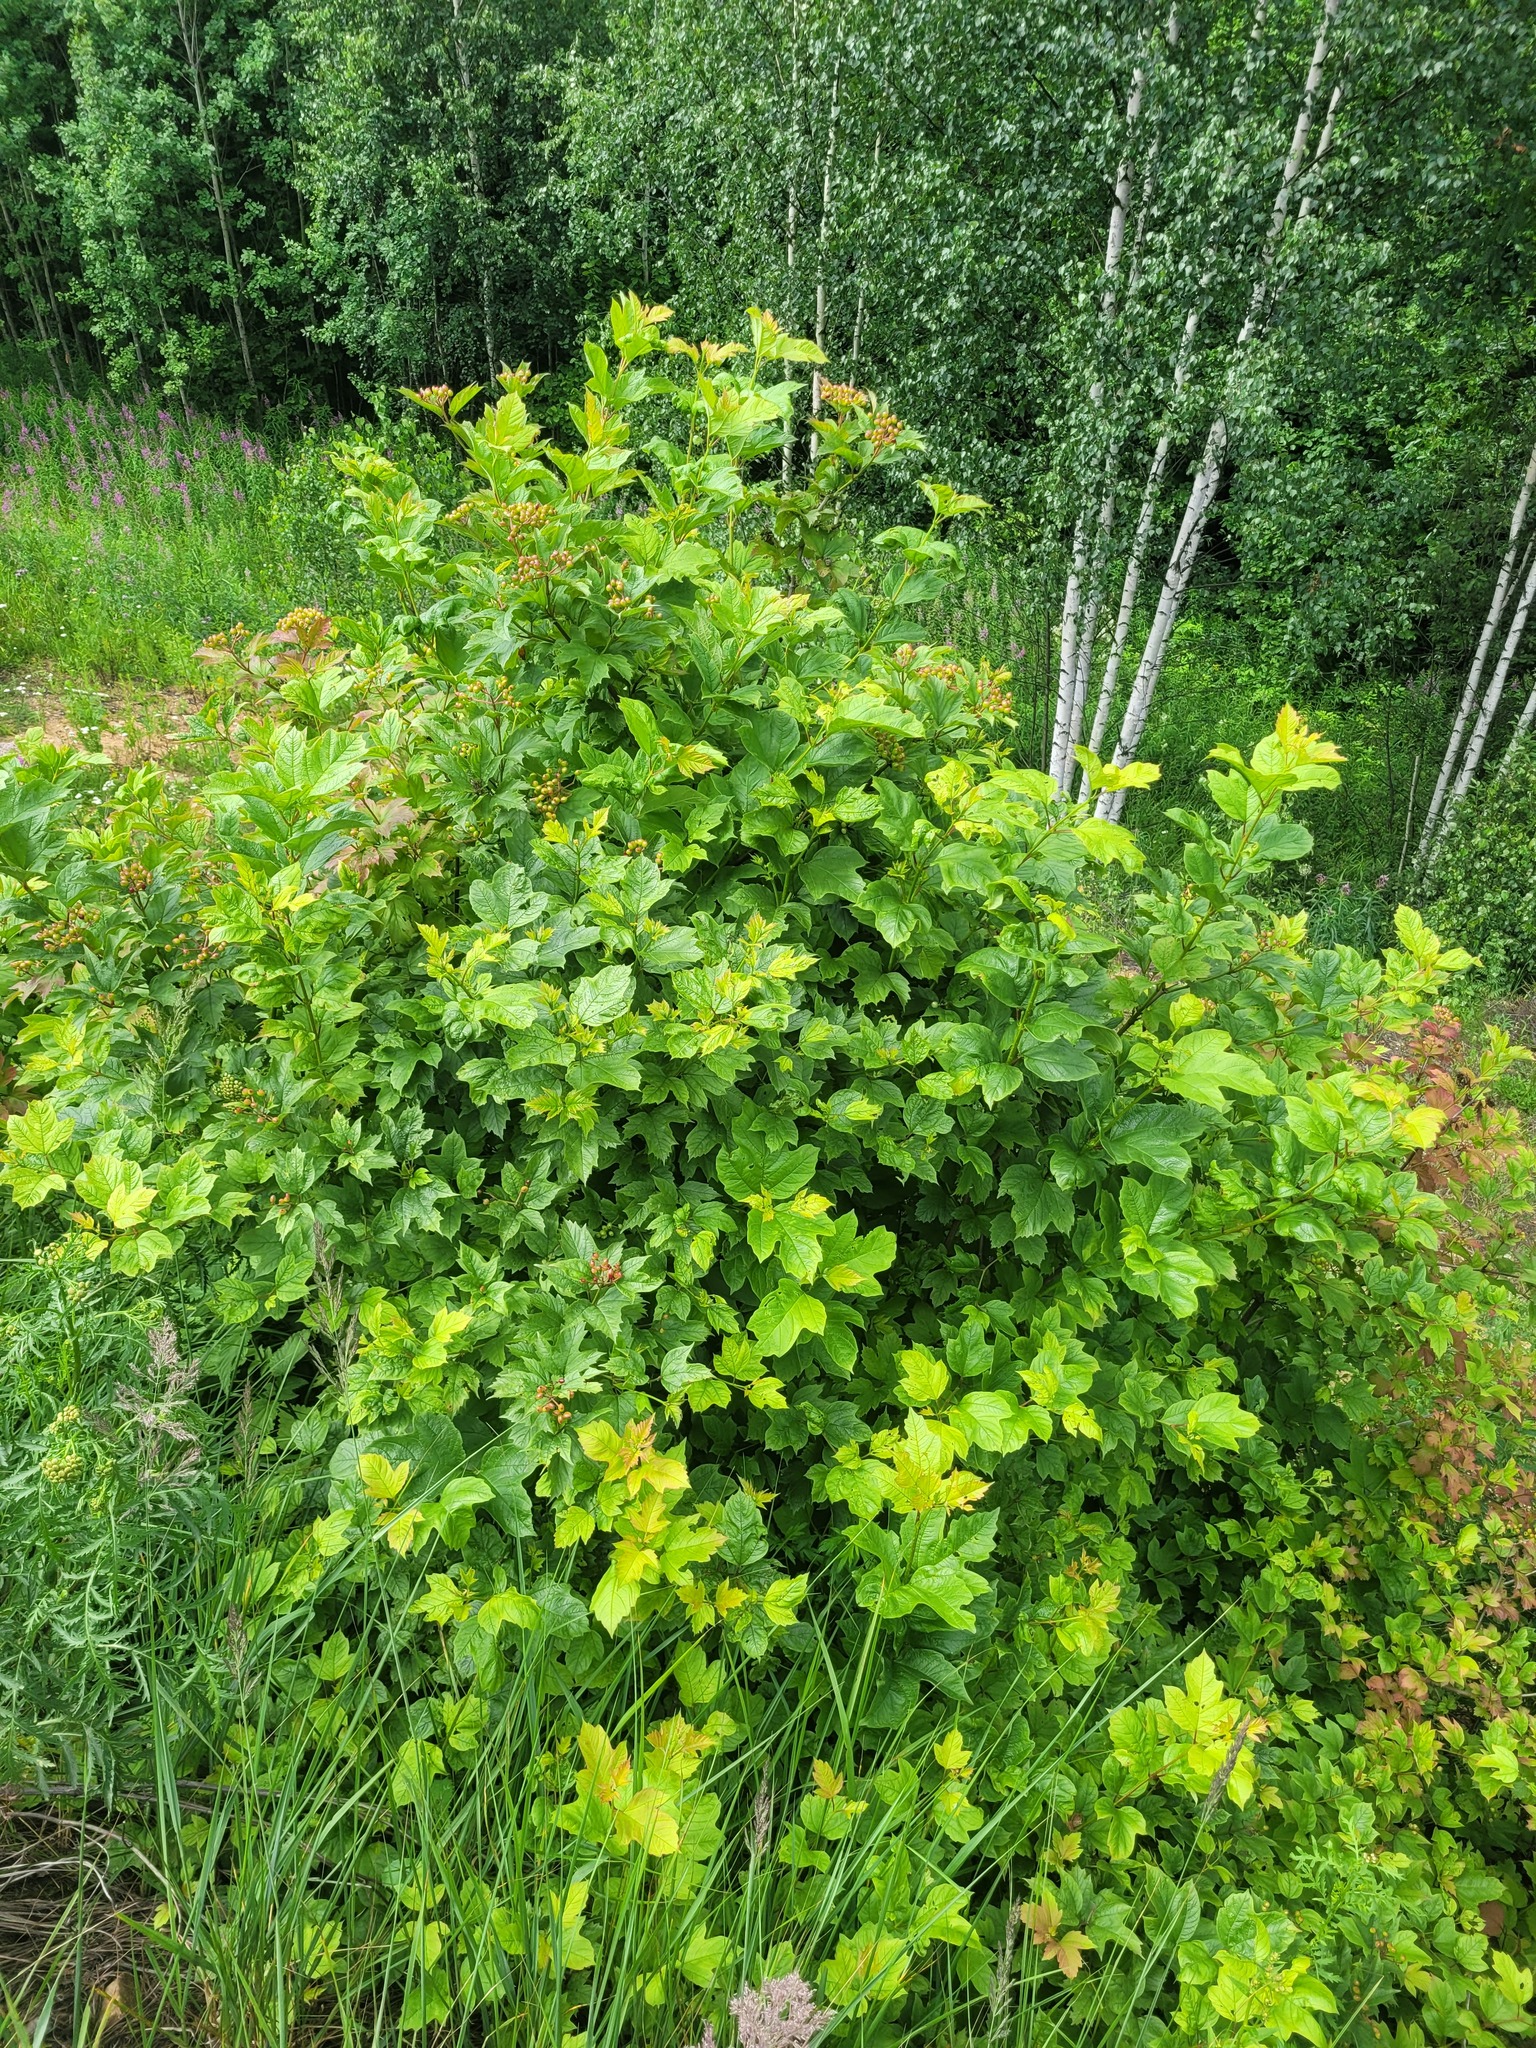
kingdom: Plantae
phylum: Tracheophyta
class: Magnoliopsida
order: Dipsacales
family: Viburnaceae
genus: Viburnum
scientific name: Viburnum opulus
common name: Guelder-rose
